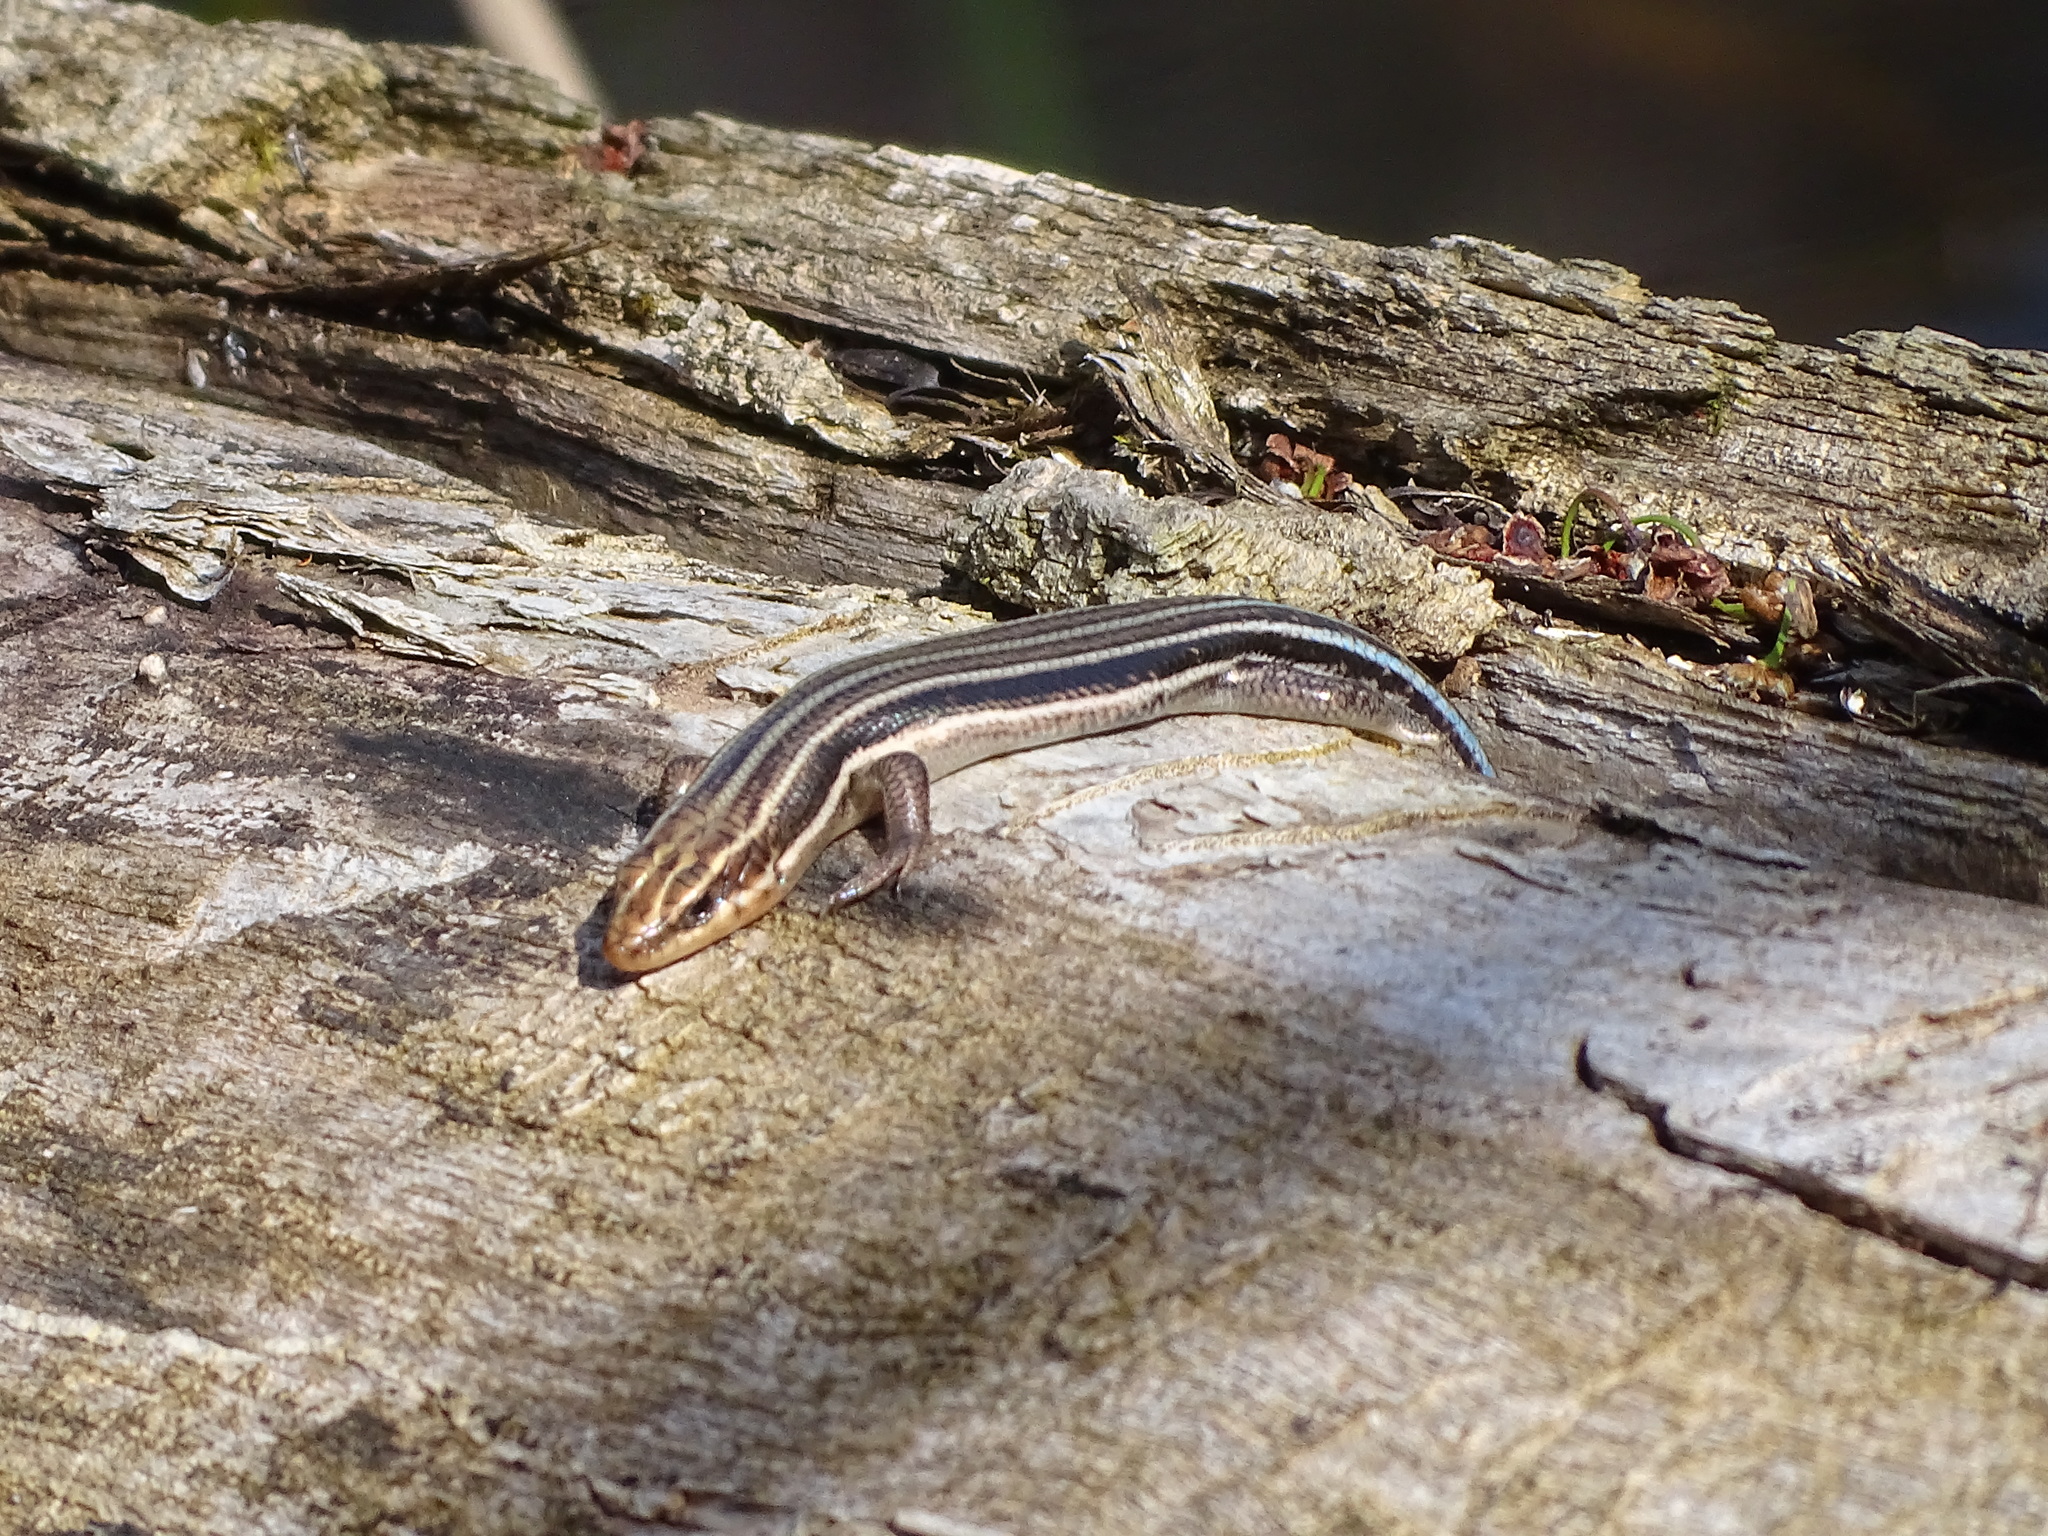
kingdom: Animalia
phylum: Chordata
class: Squamata
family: Scincidae
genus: Plestiodon
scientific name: Plestiodon fasciatus
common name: Five-lined skink
